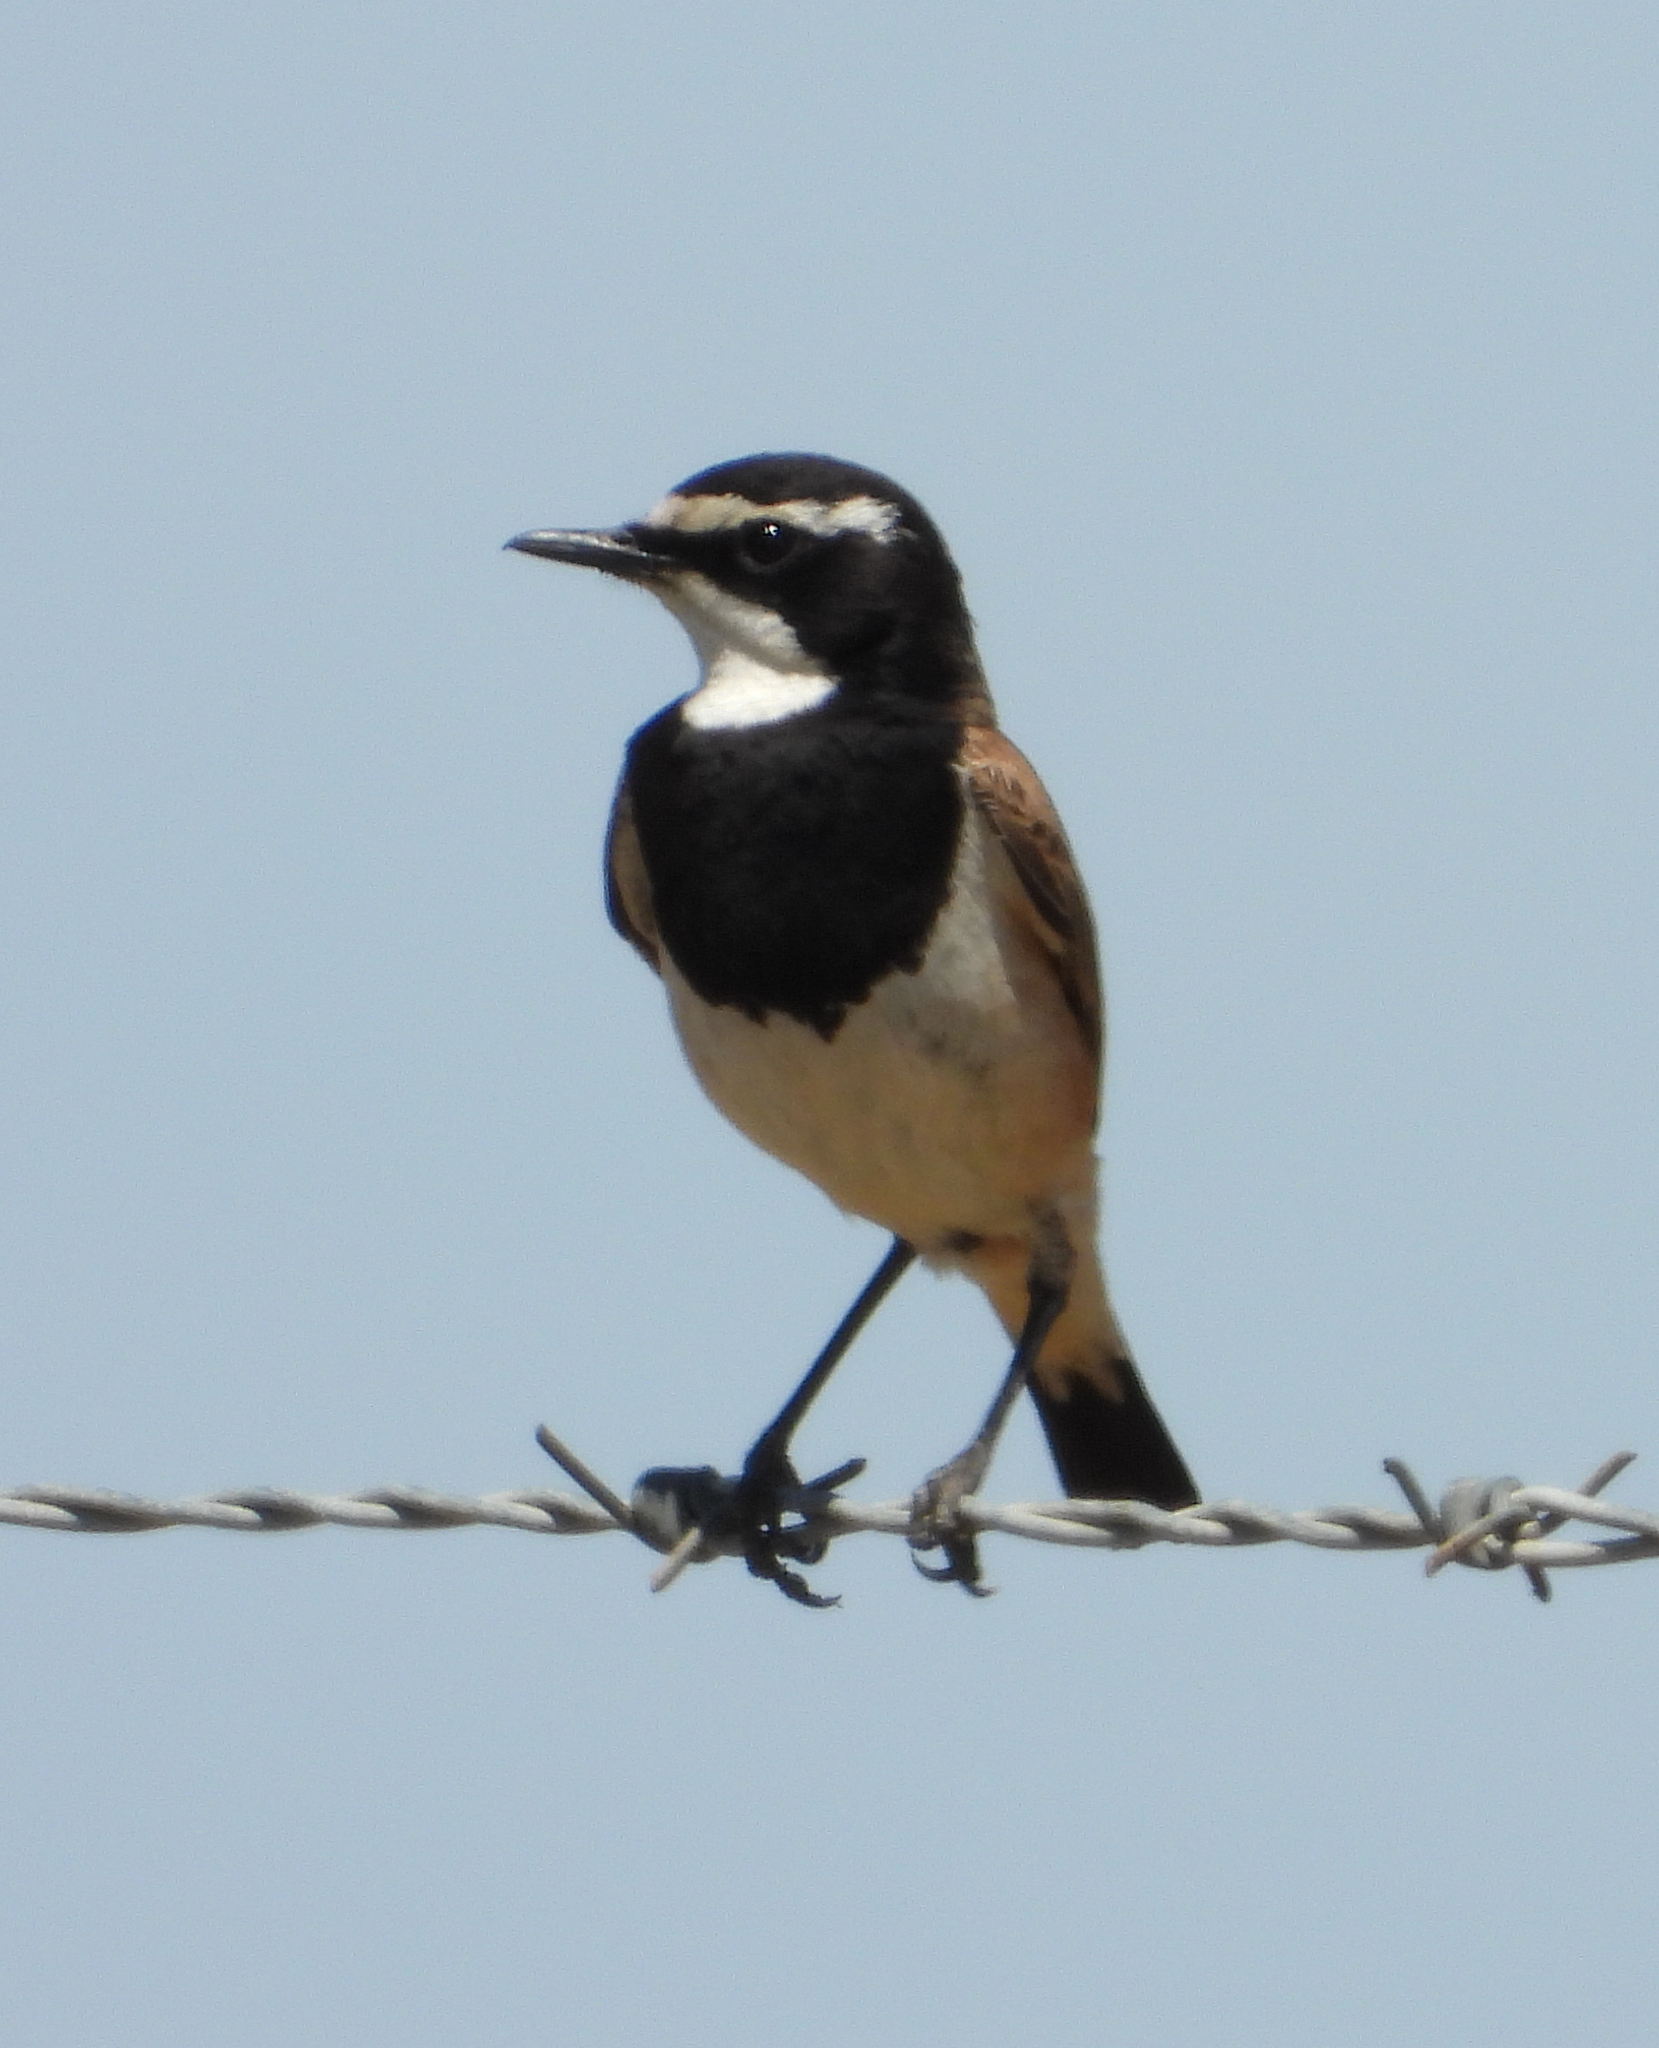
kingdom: Animalia
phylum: Chordata
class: Aves
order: Passeriformes
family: Muscicapidae
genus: Oenanthe
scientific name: Oenanthe pileata
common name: Capped wheatear
